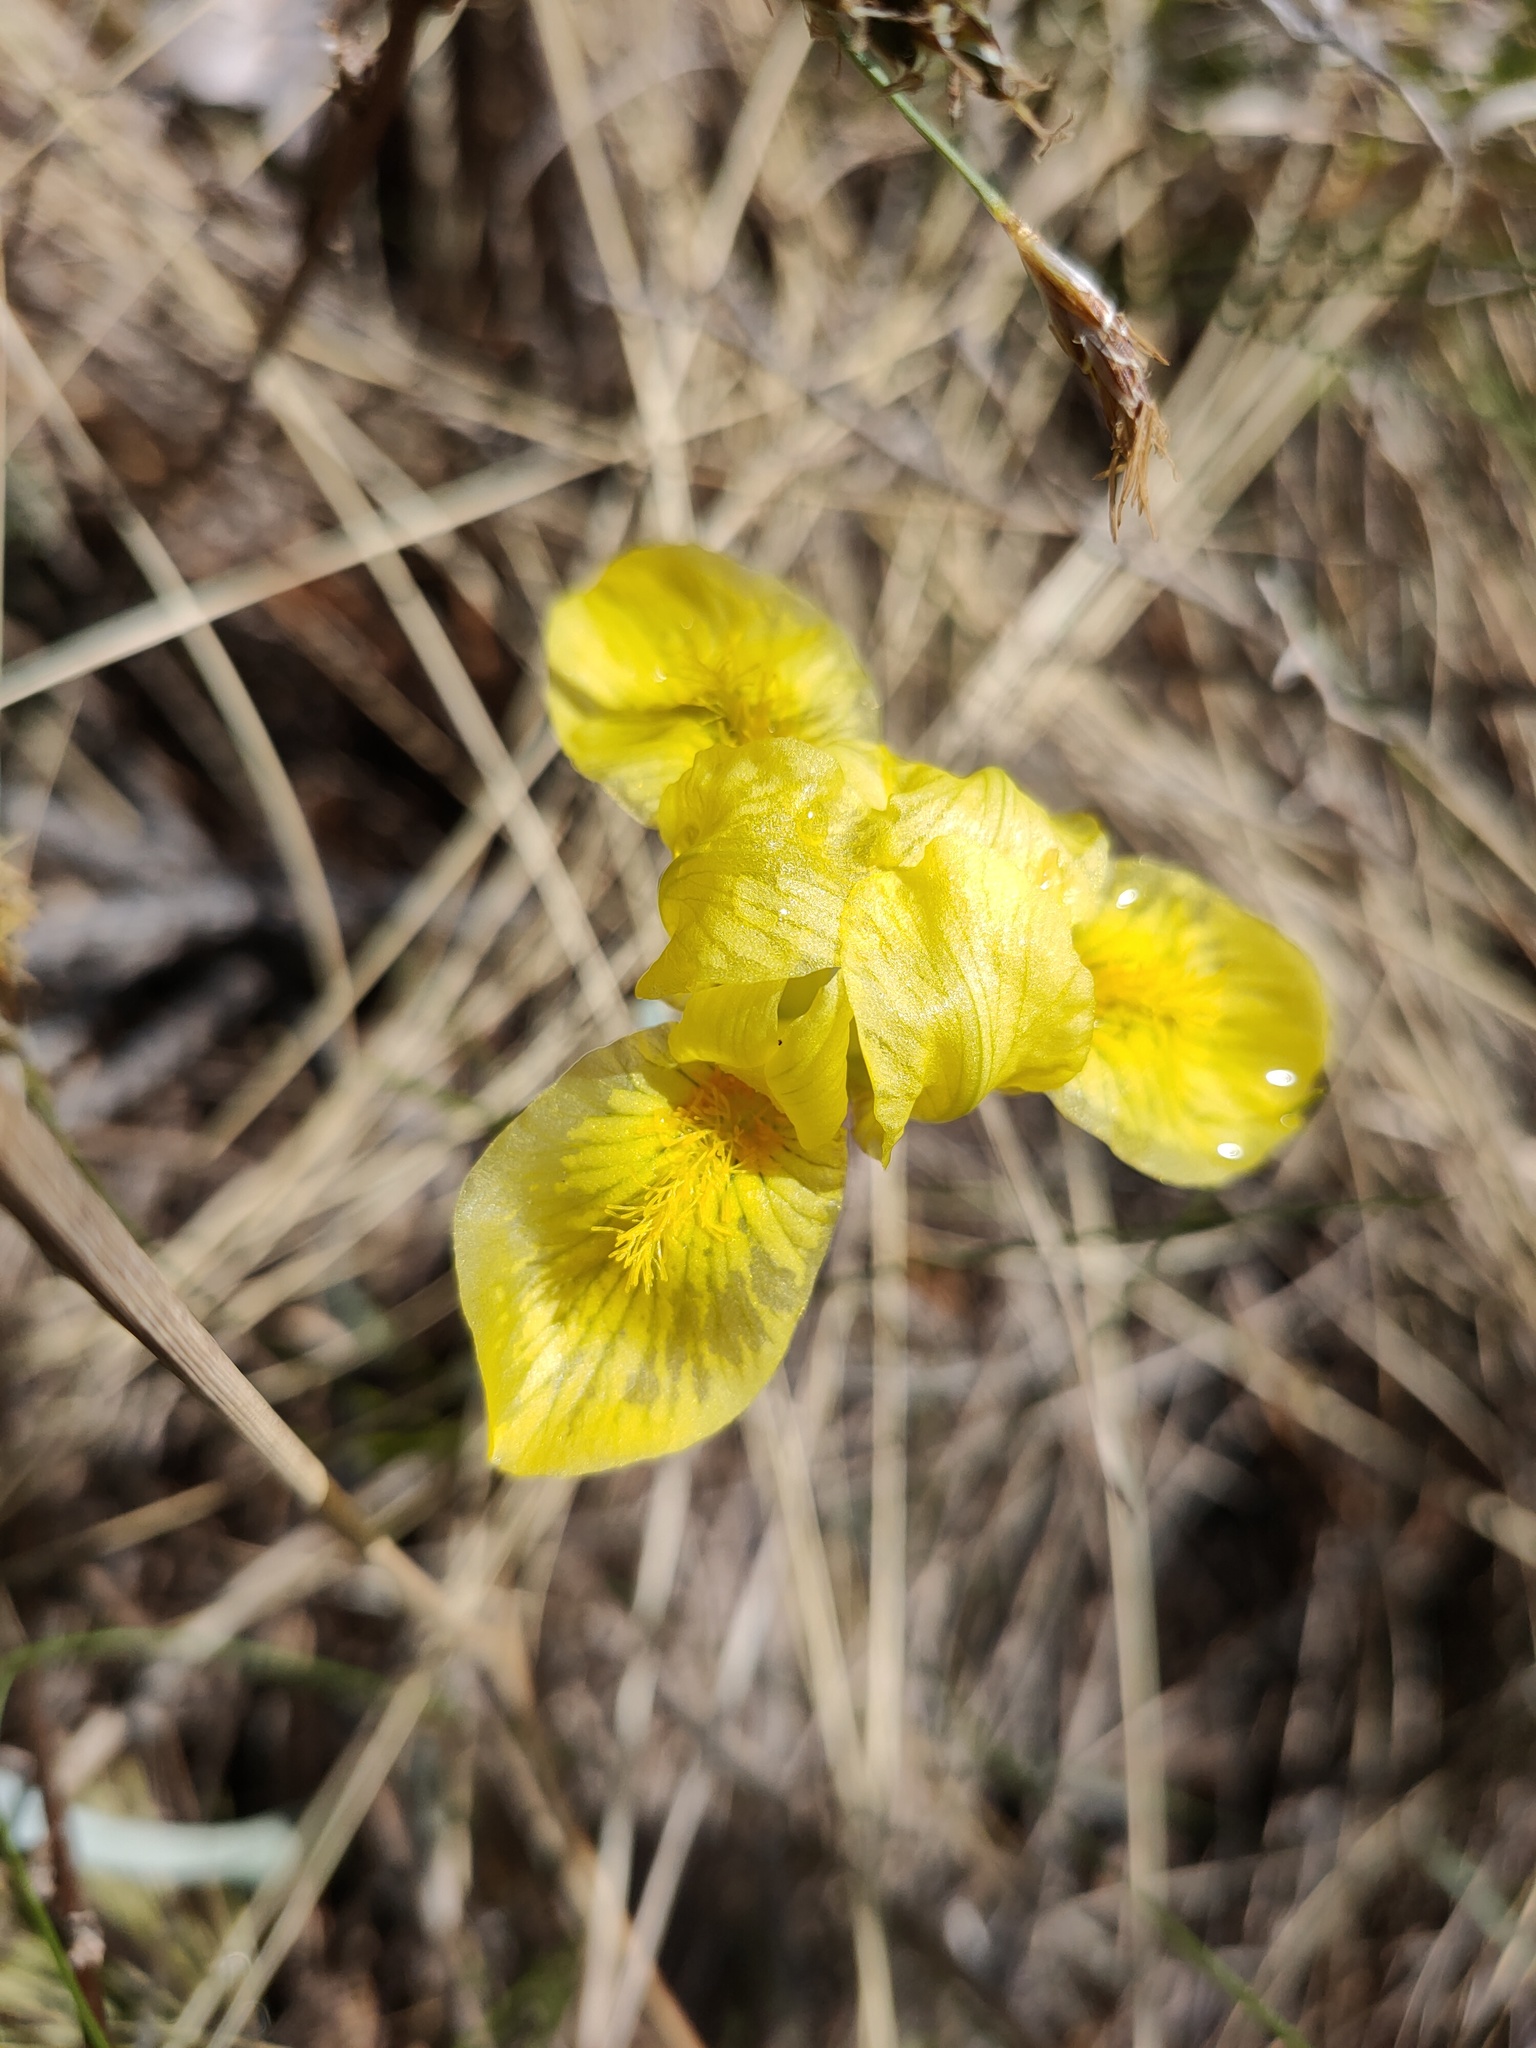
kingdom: Plantae
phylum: Tracheophyta
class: Liliopsida
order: Asparagales
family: Iridaceae
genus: Iris
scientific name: Iris humilis
